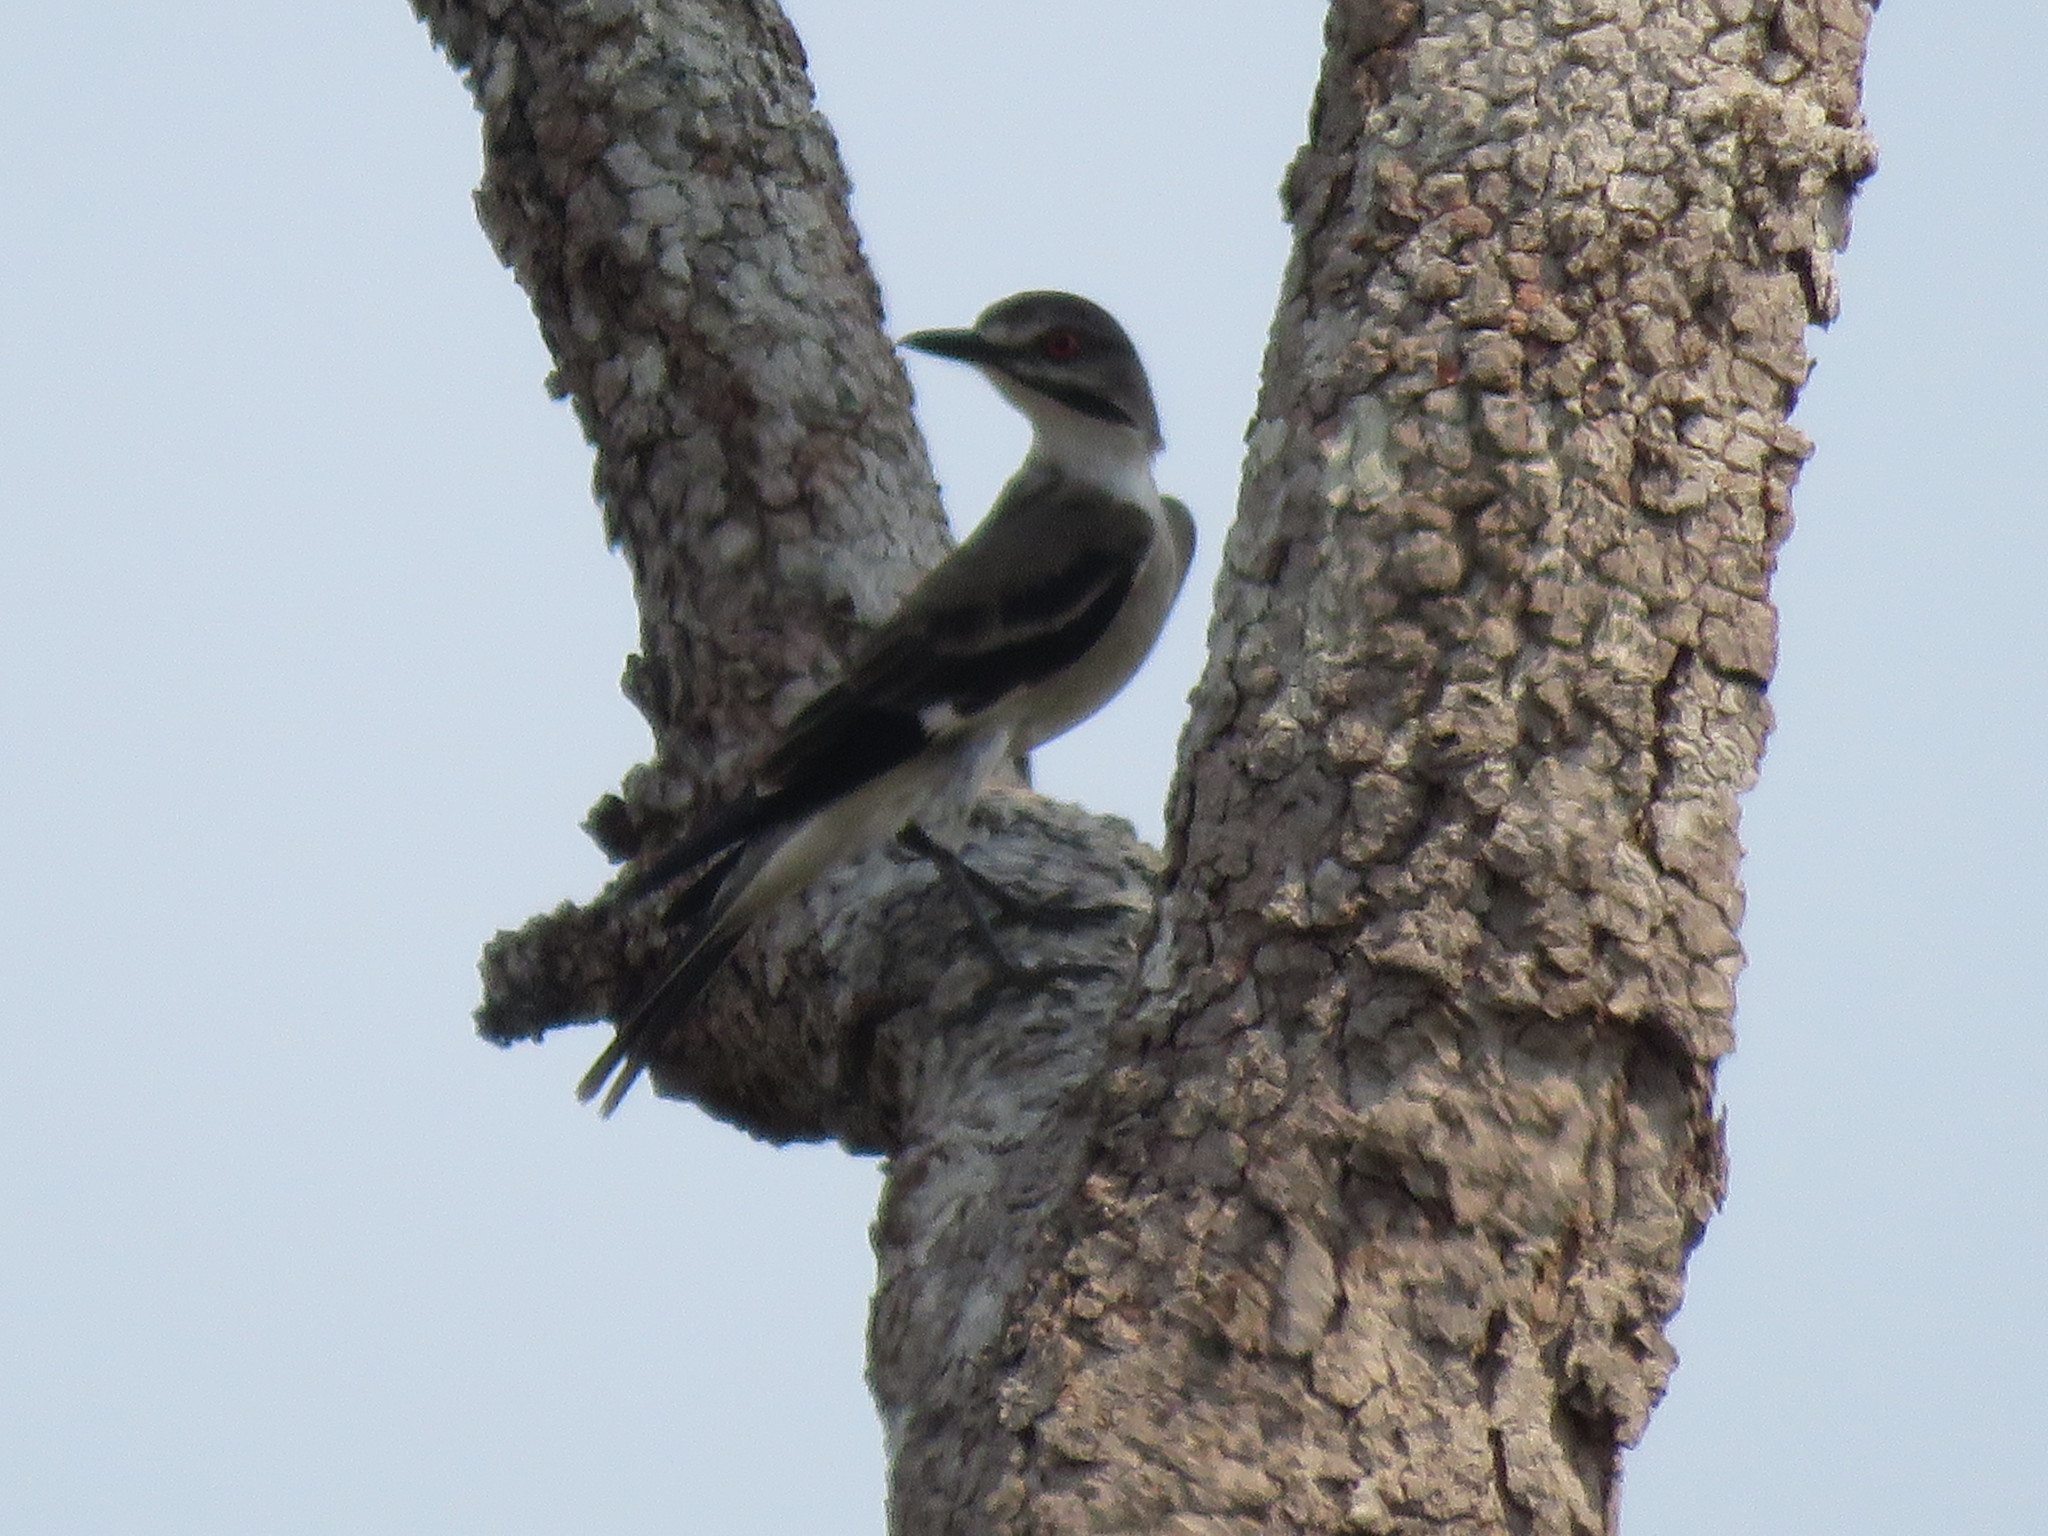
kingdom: Animalia
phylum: Chordata
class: Aves
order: Passeriformes
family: Tyrannidae
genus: Xolmis
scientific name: Xolmis cinereus
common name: Grey monjita
